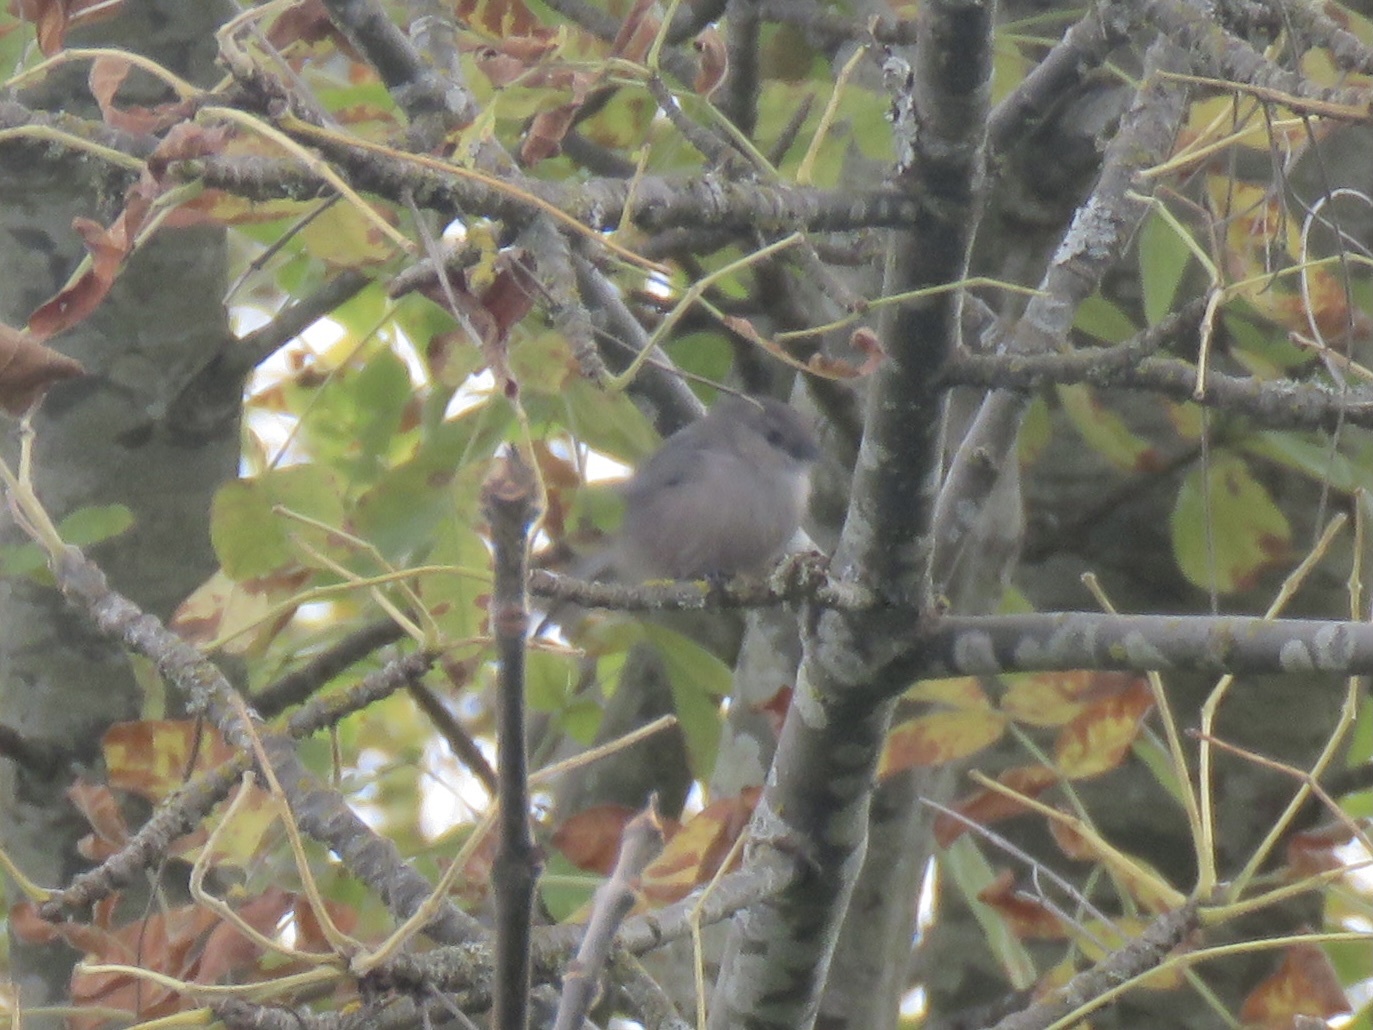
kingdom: Animalia
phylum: Chordata
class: Aves
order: Passeriformes
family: Aegithalidae
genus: Psaltriparus
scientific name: Psaltriparus minimus
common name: American bushtit
